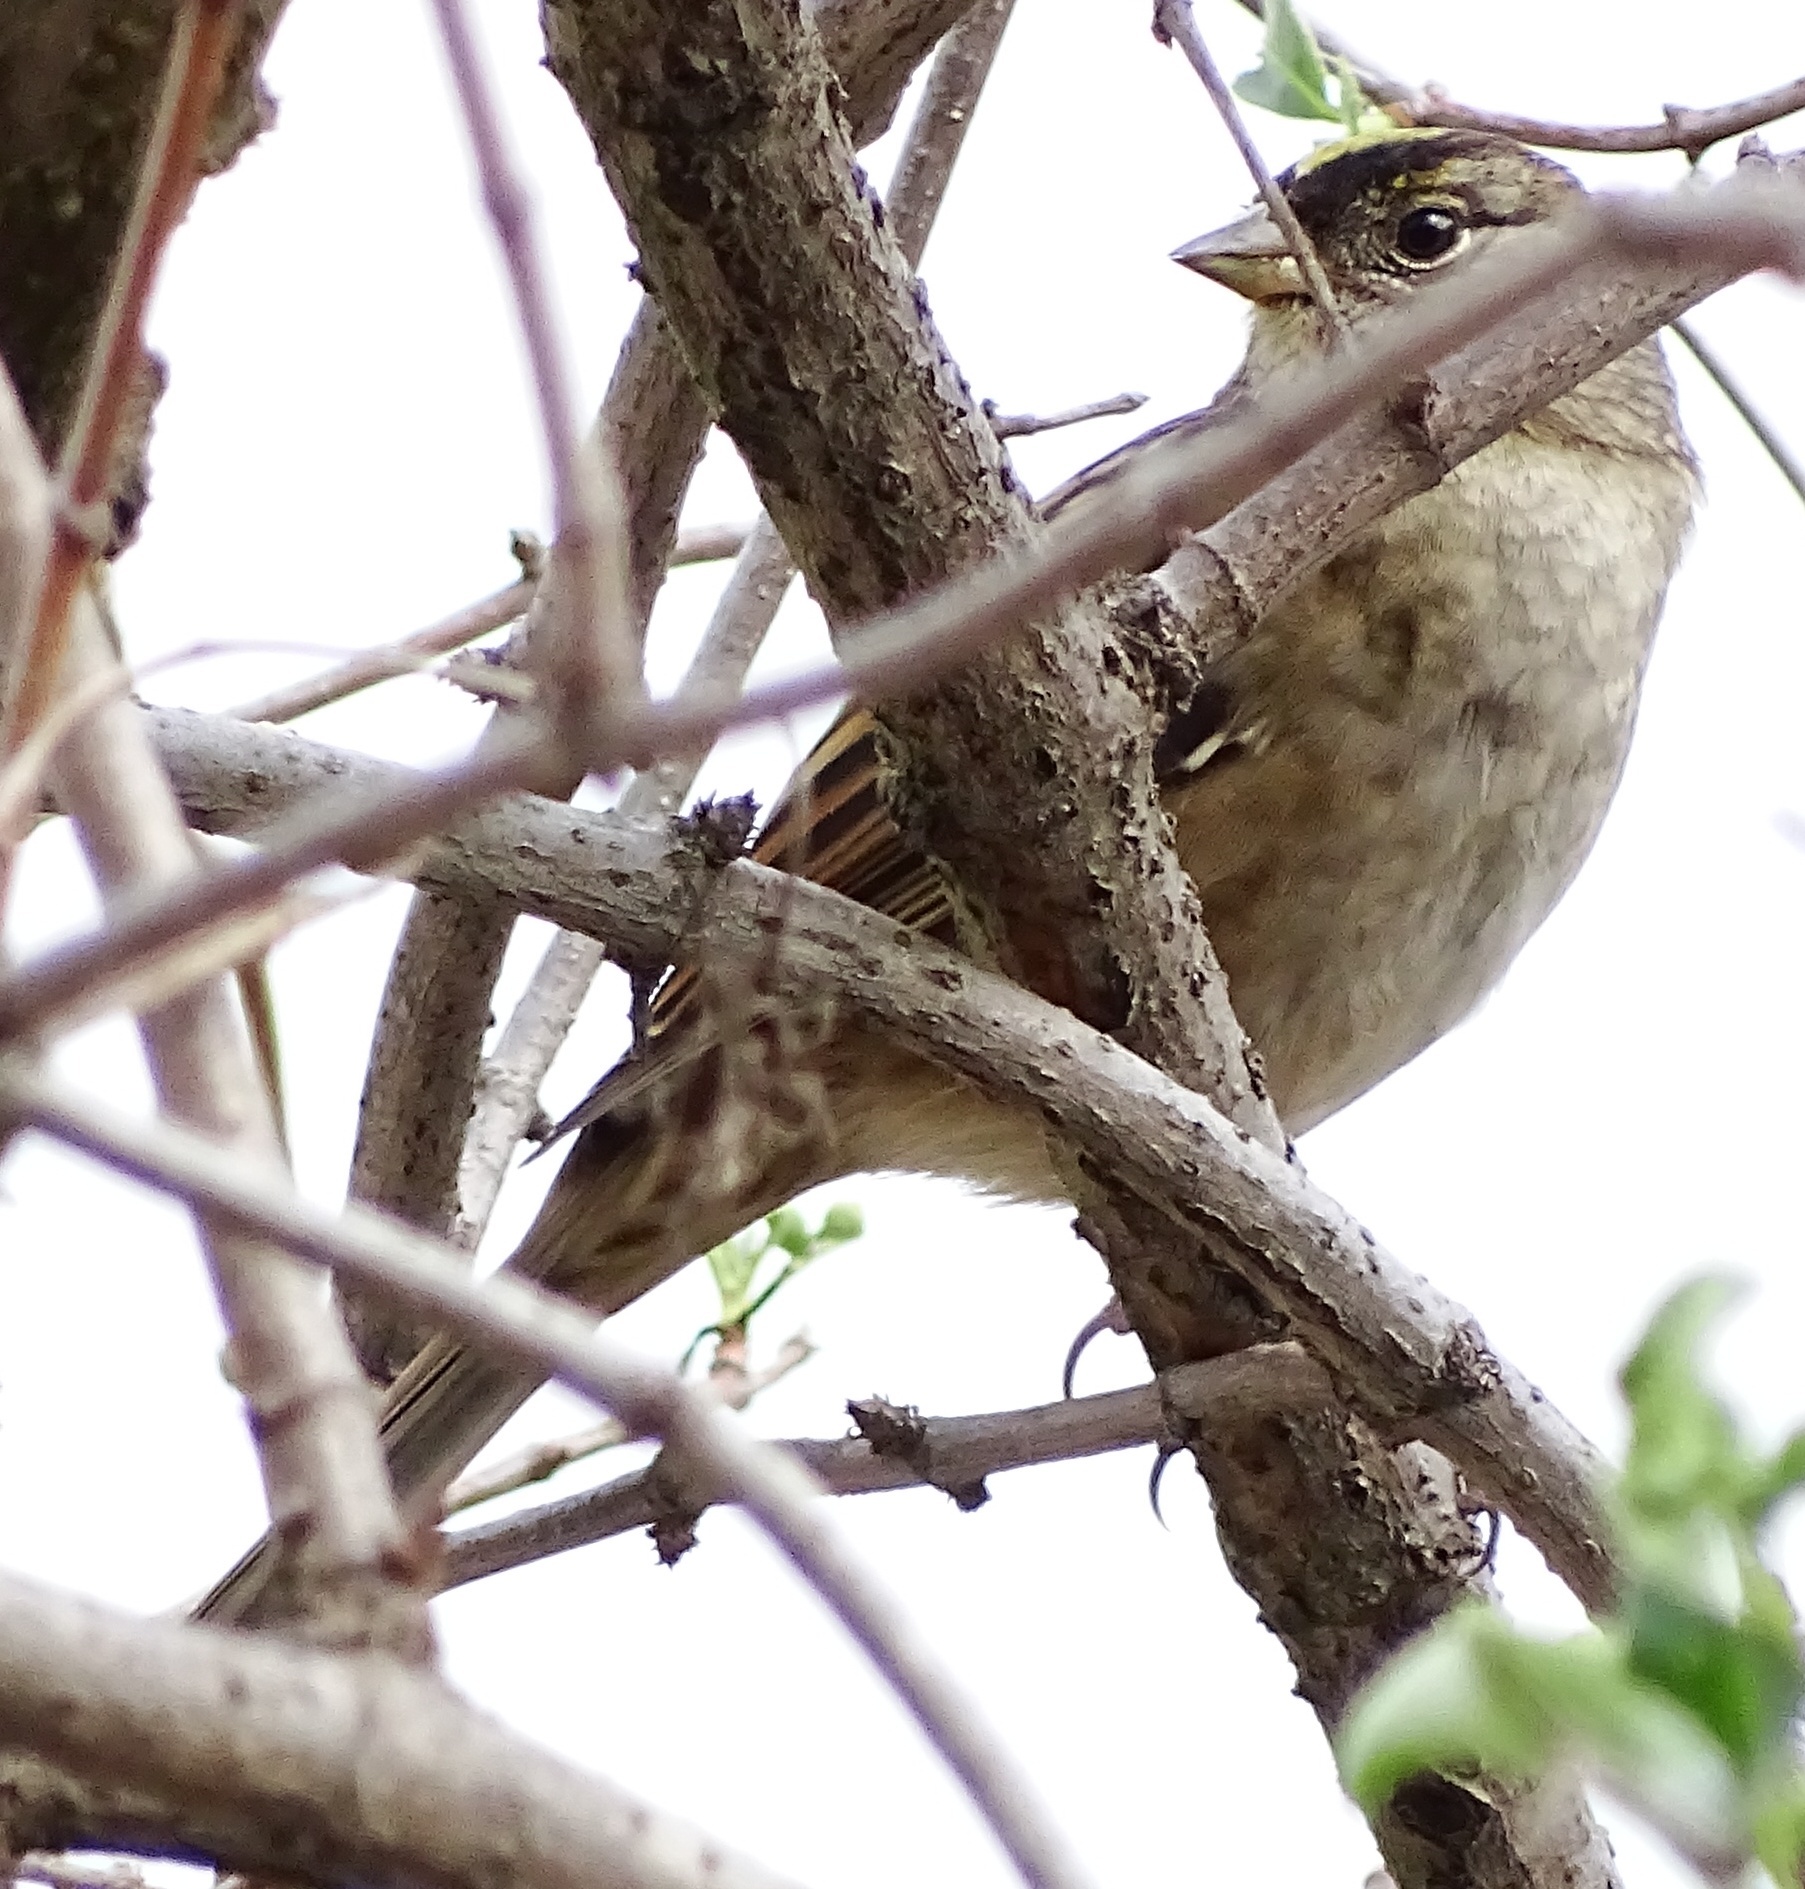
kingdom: Animalia
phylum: Chordata
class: Aves
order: Passeriformes
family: Passerellidae
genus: Zonotrichia
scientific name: Zonotrichia atricapilla
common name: Golden-crowned sparrow
